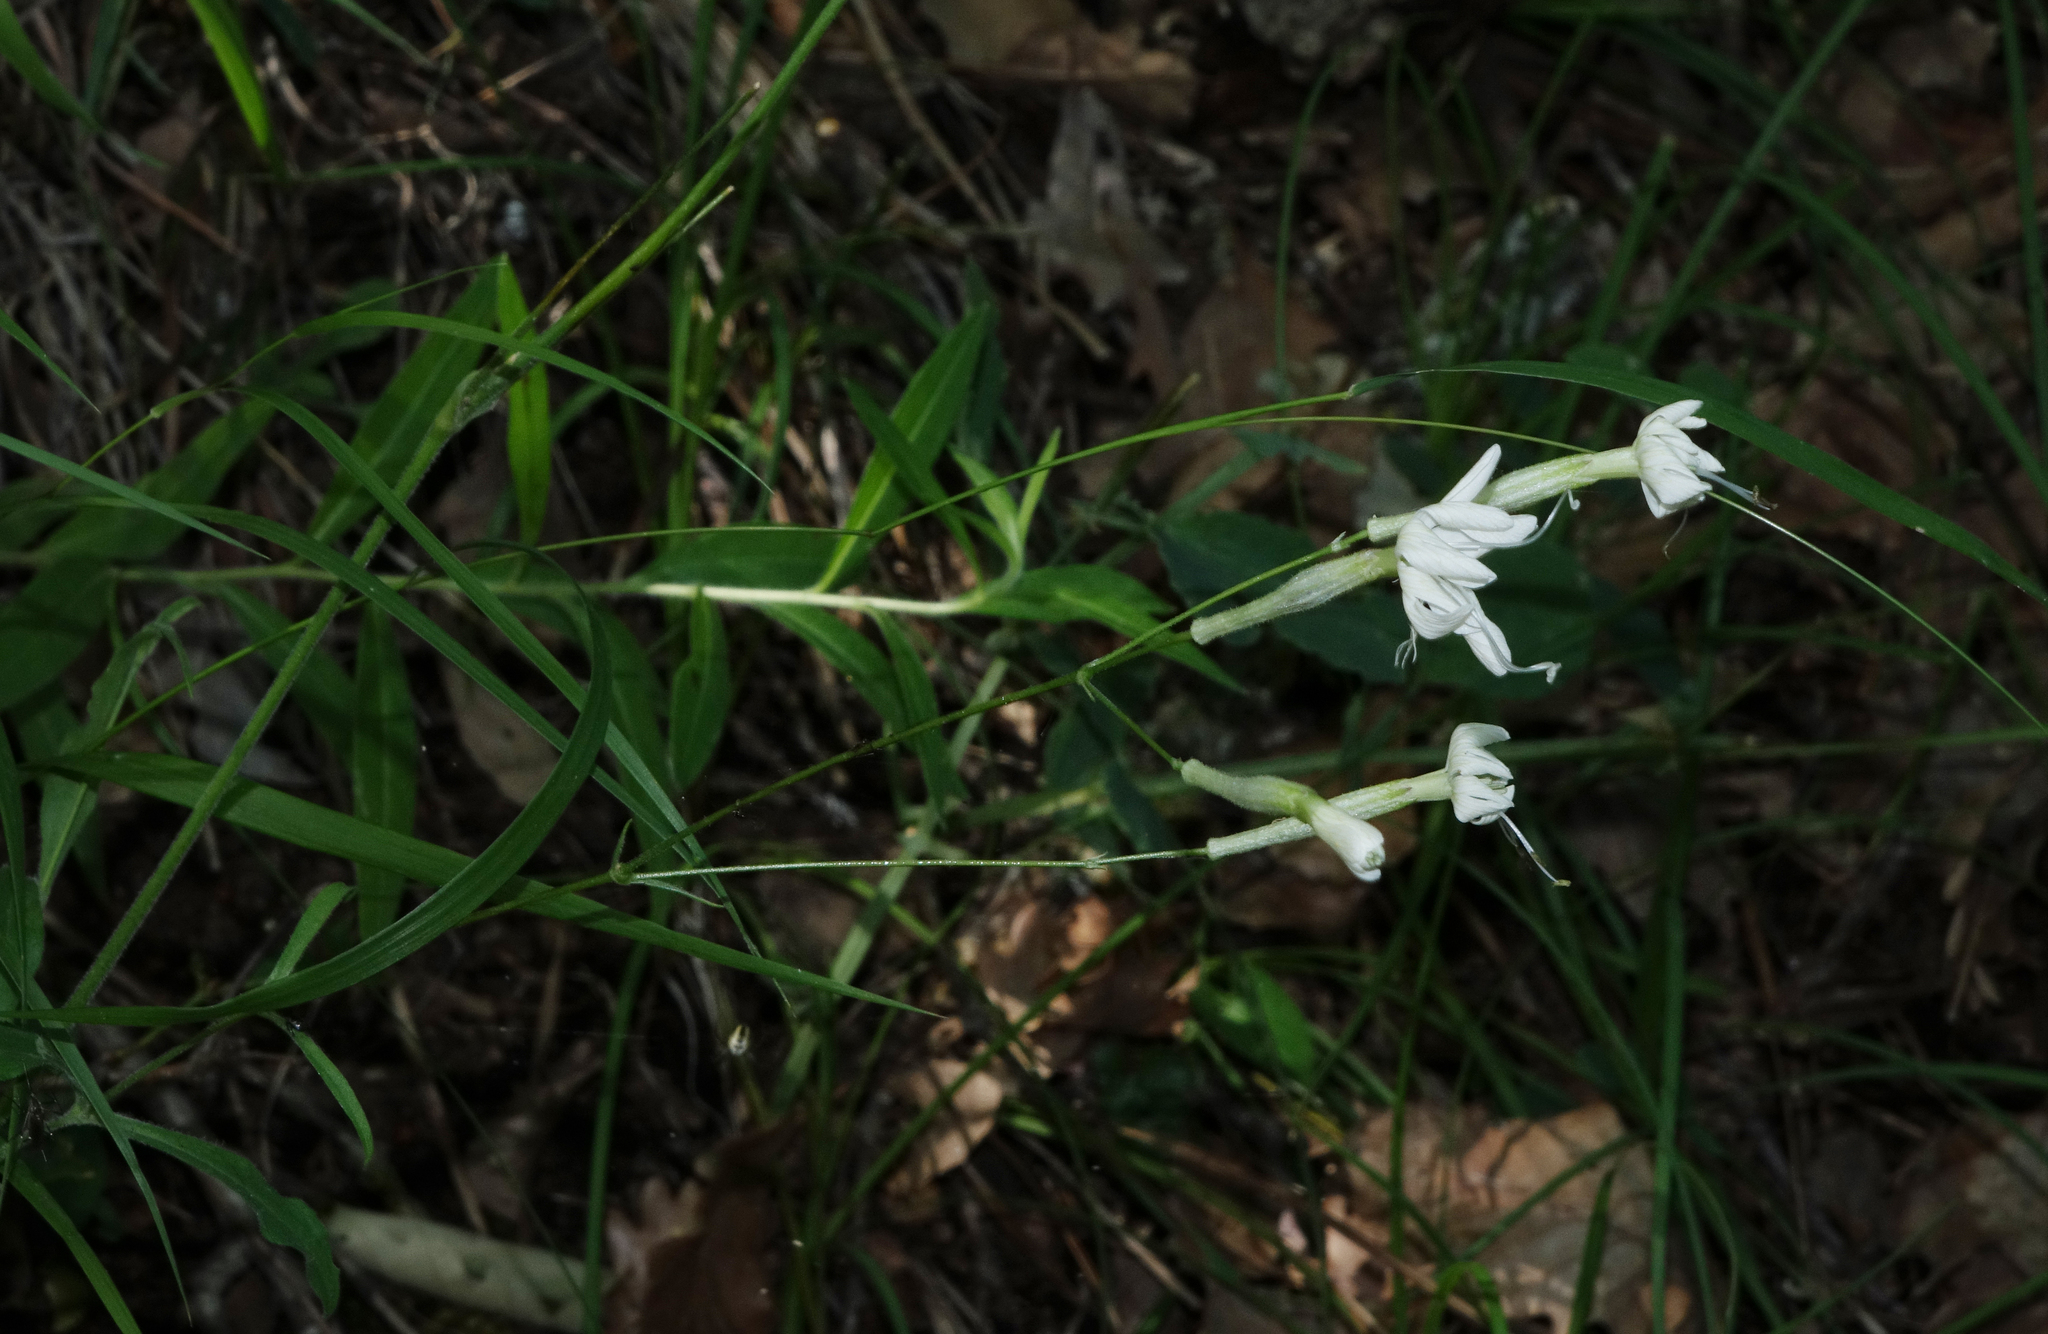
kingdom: Plantae
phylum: Tracheophyta
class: Magnoliopsida
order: Caryophyllales
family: Caryophyllaceae
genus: Silene
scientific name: Silene italica
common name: Italian catchfly
